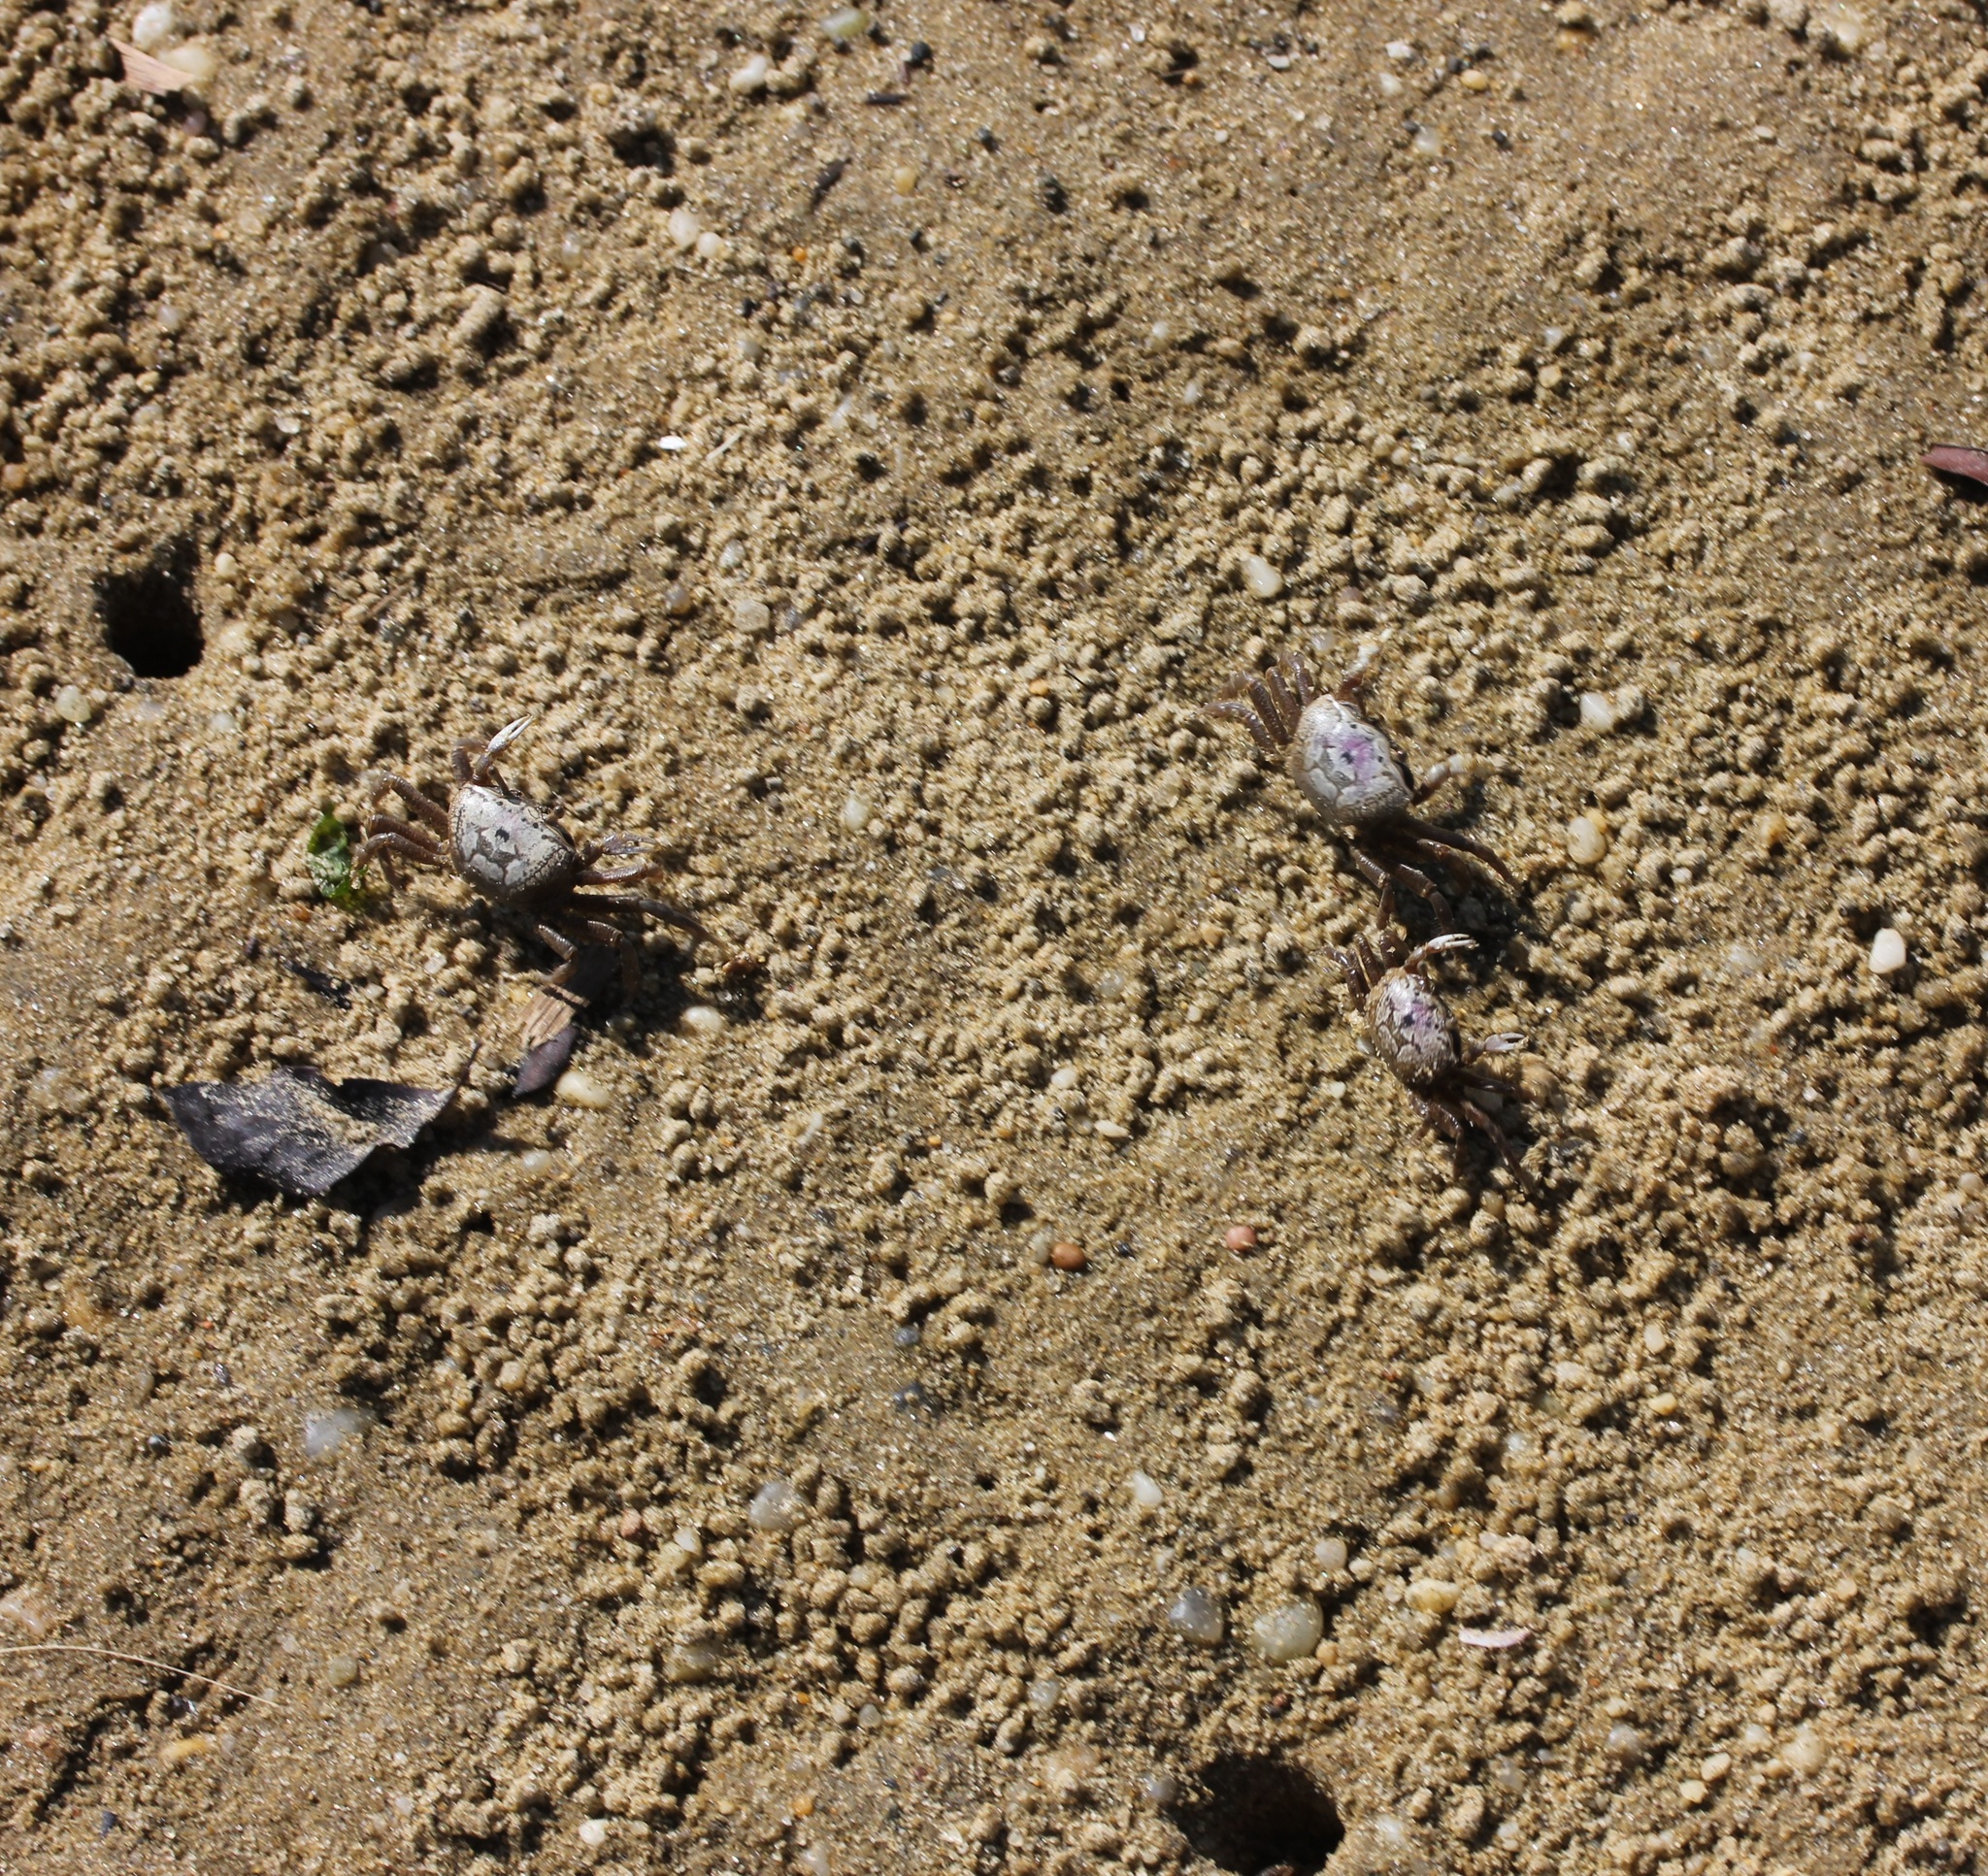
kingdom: Animalia
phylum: Arthropoda
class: Malacostraca
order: Decapoda
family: Ocypodidae
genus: Leptuca
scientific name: Leptuca pugilator
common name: Atlantic sand fiddler crab
